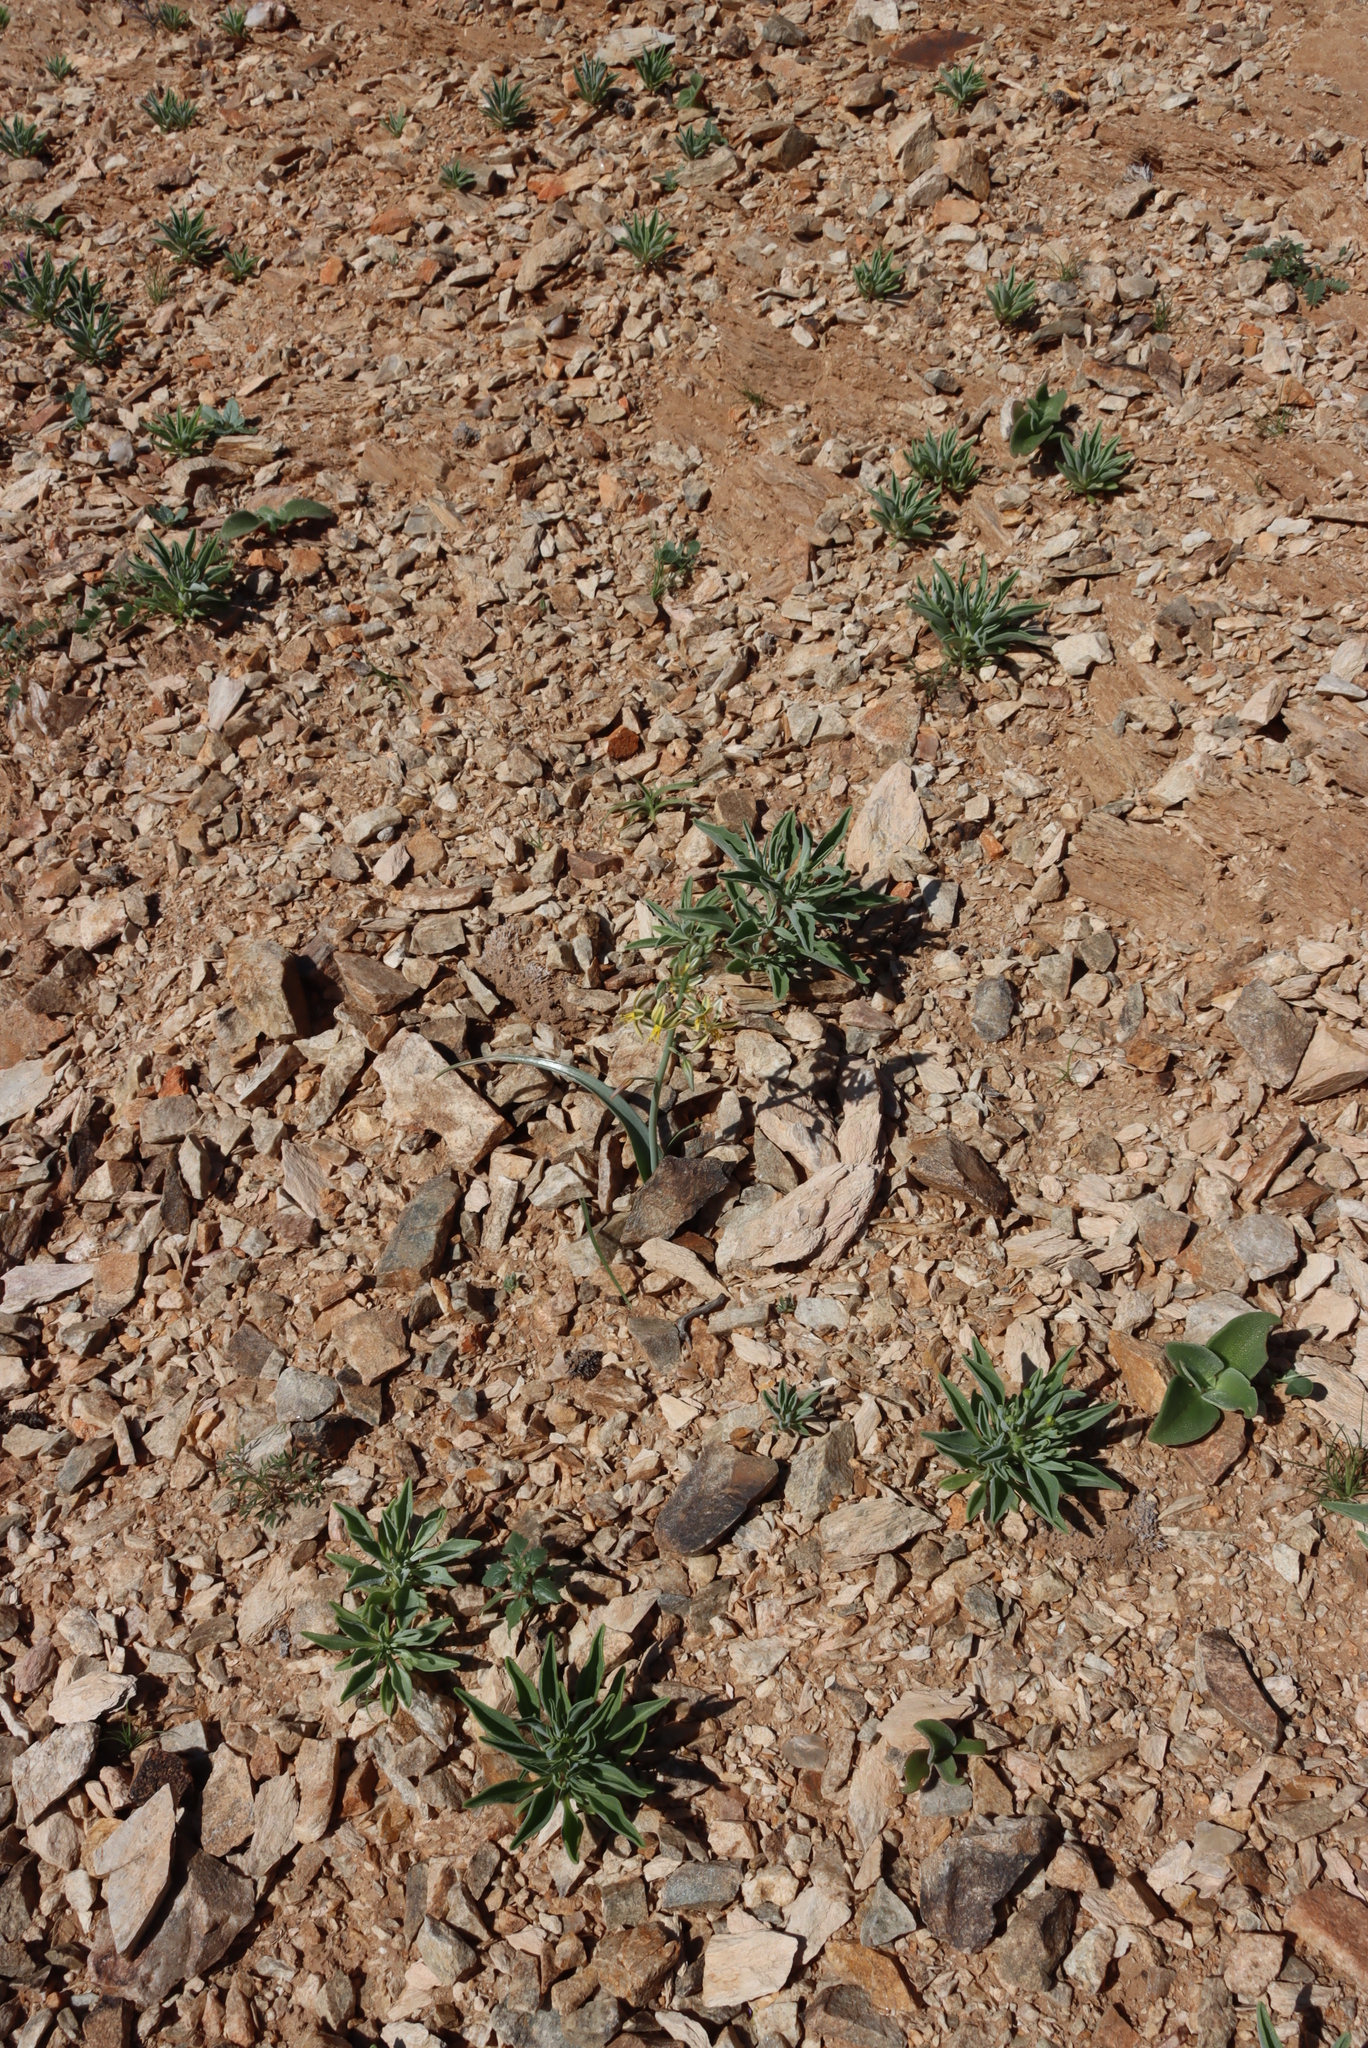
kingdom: Plantae
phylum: Tracheophyta
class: Liliopsida
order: Asparagales
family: Asparagaceae
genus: Albuca
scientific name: Albuca pearsonii
